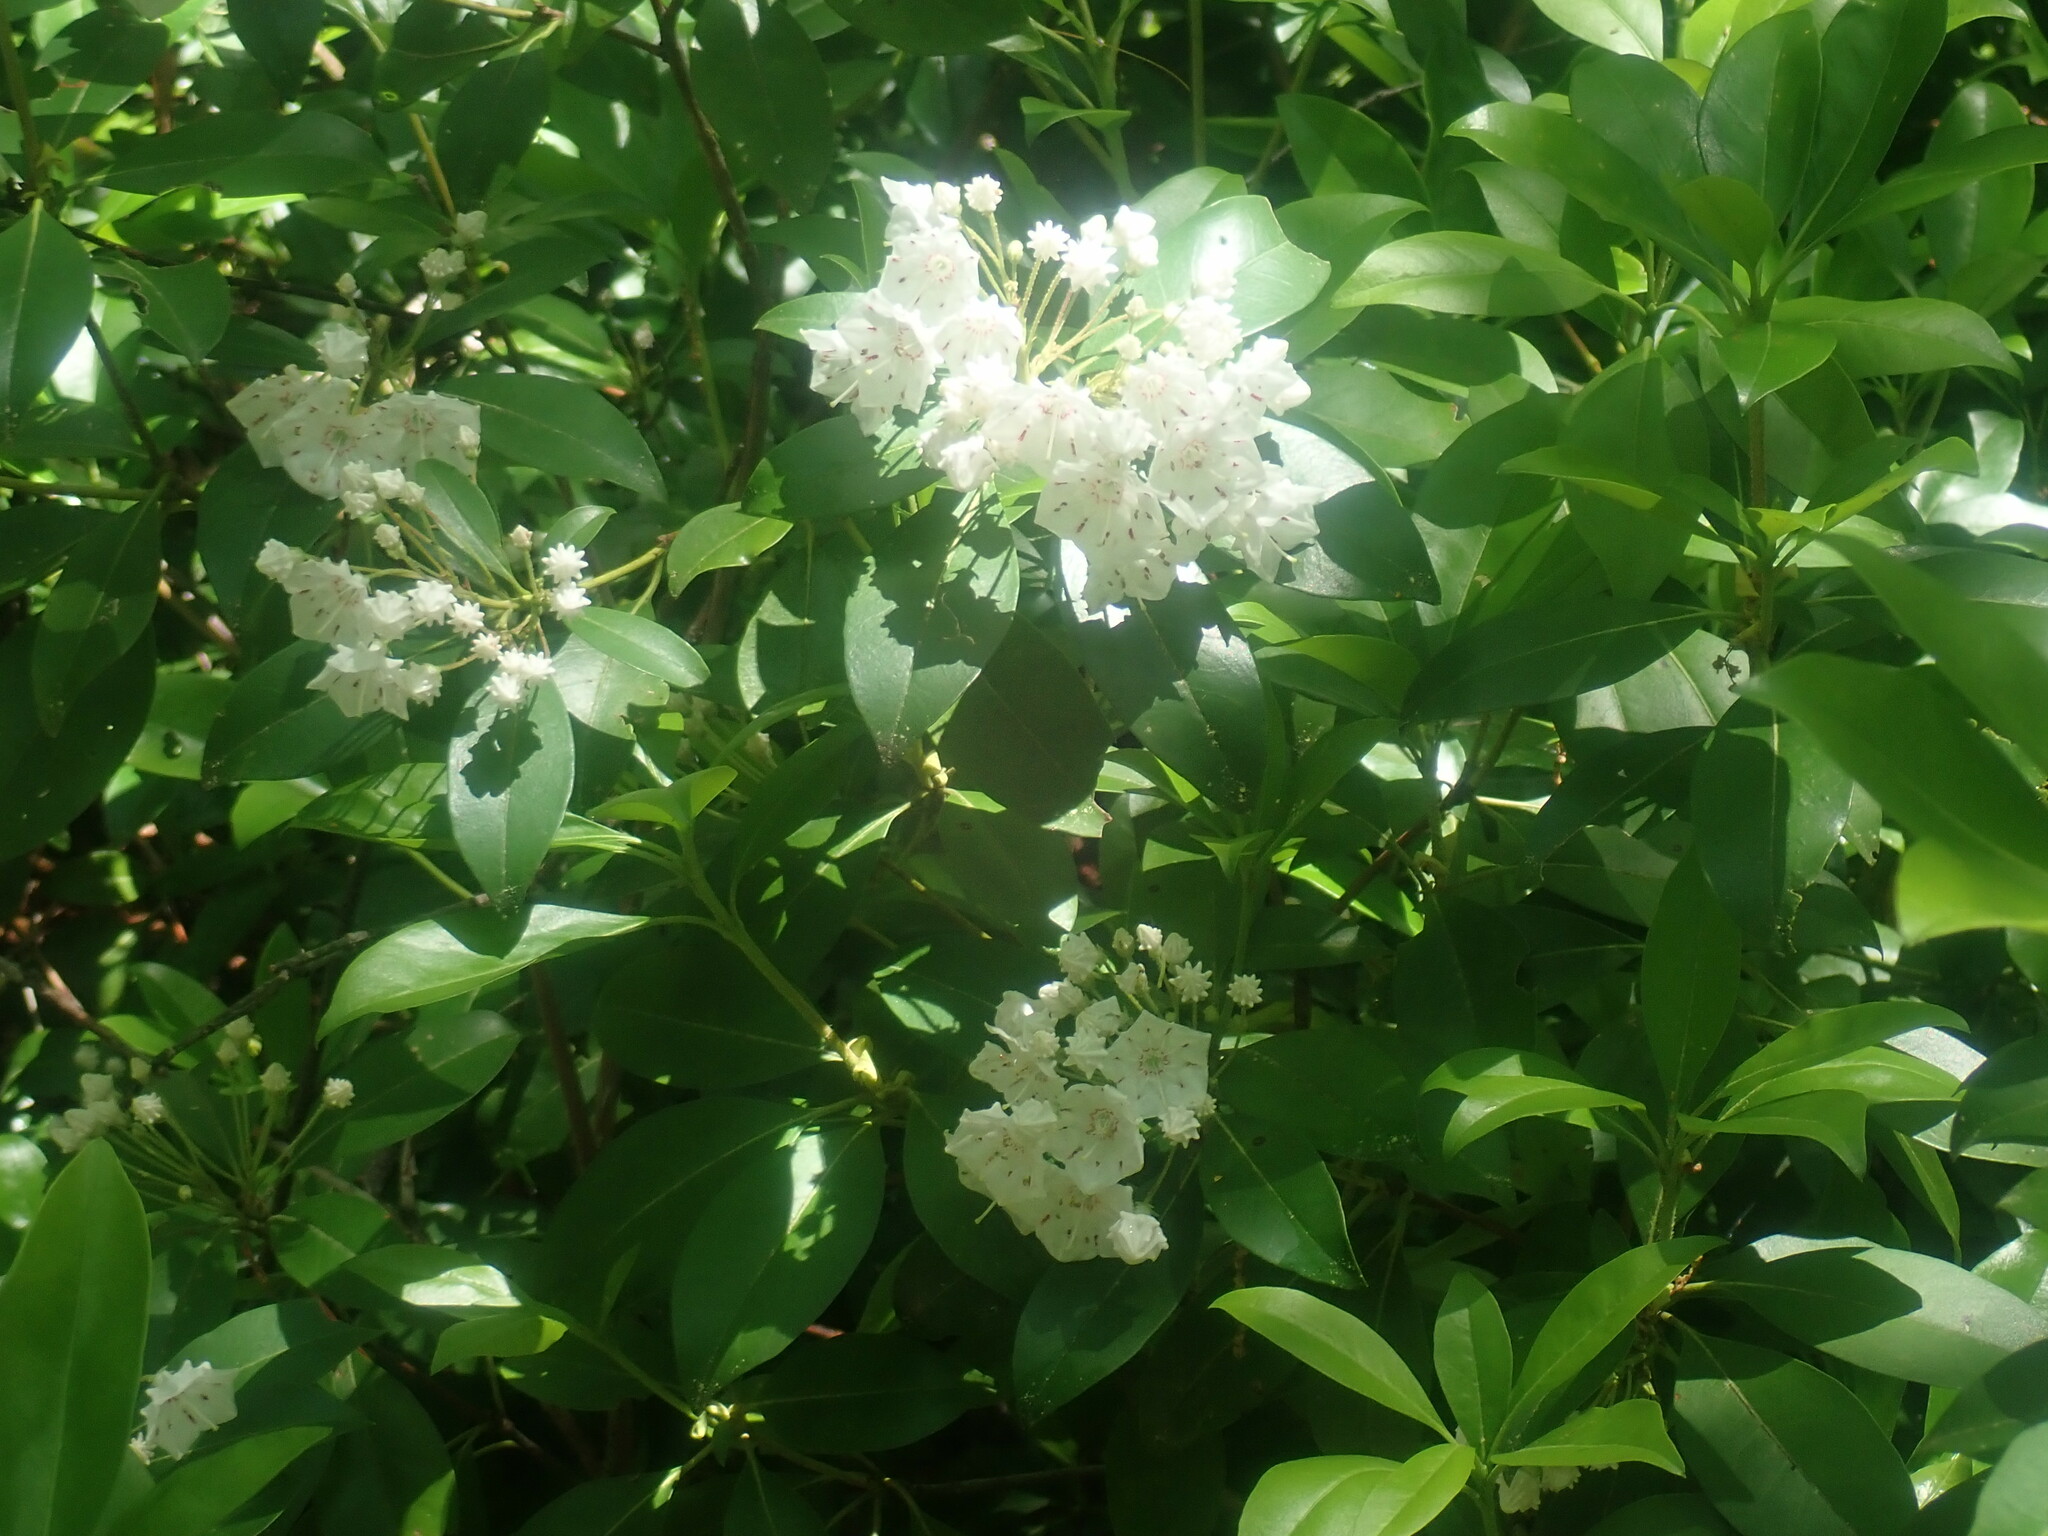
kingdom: Plantae
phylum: Tracheophyta
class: Magnoliopsida
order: Ericales
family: Ericaceae
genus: Kalmia
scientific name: Kalmia latifolia
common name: Mountain-laurel
